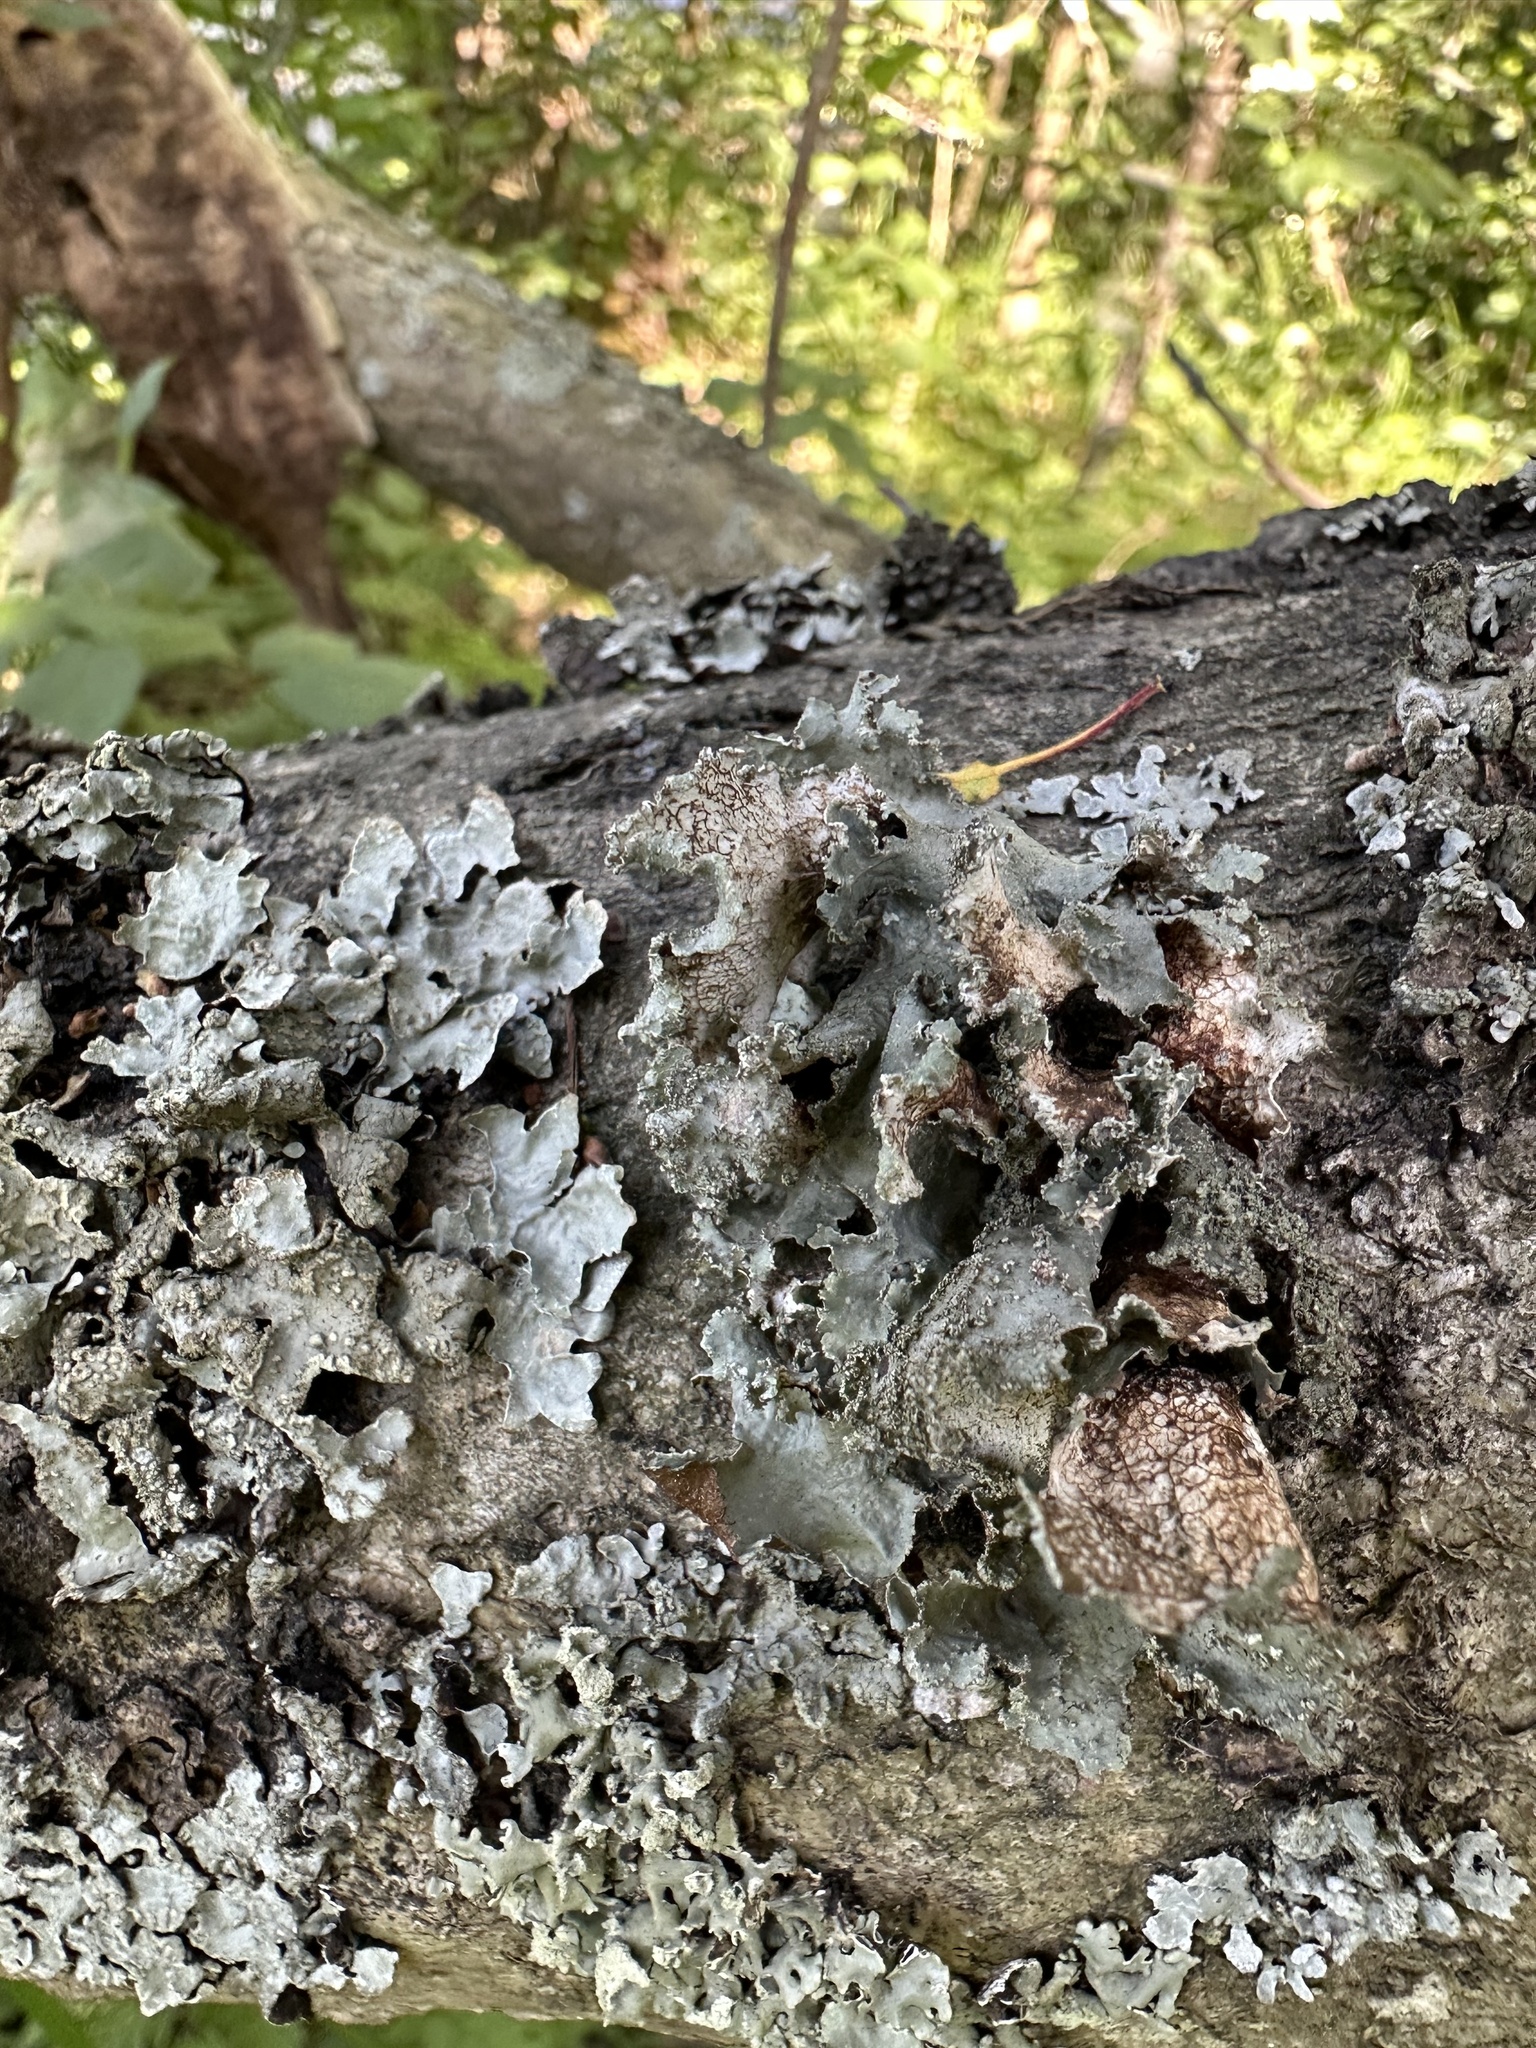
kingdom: Fungi
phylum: Ascomycota
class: Lecanoromycetes
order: Lecanorales
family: Parmeliaceae
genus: Platismatia
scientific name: Platismatia glauca
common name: Varied rag lichen
